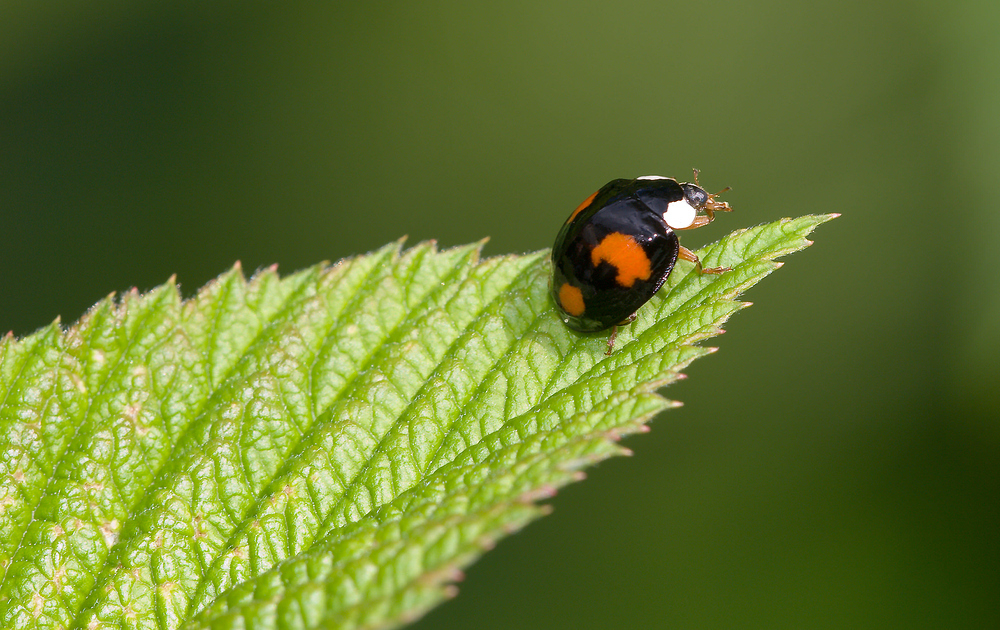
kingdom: Animalia
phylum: Arthropoda
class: Insecta
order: Coleoptera
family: Coccinellidae
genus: Harmonia
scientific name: Harmonia axyridis
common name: Harlequin ladybird
